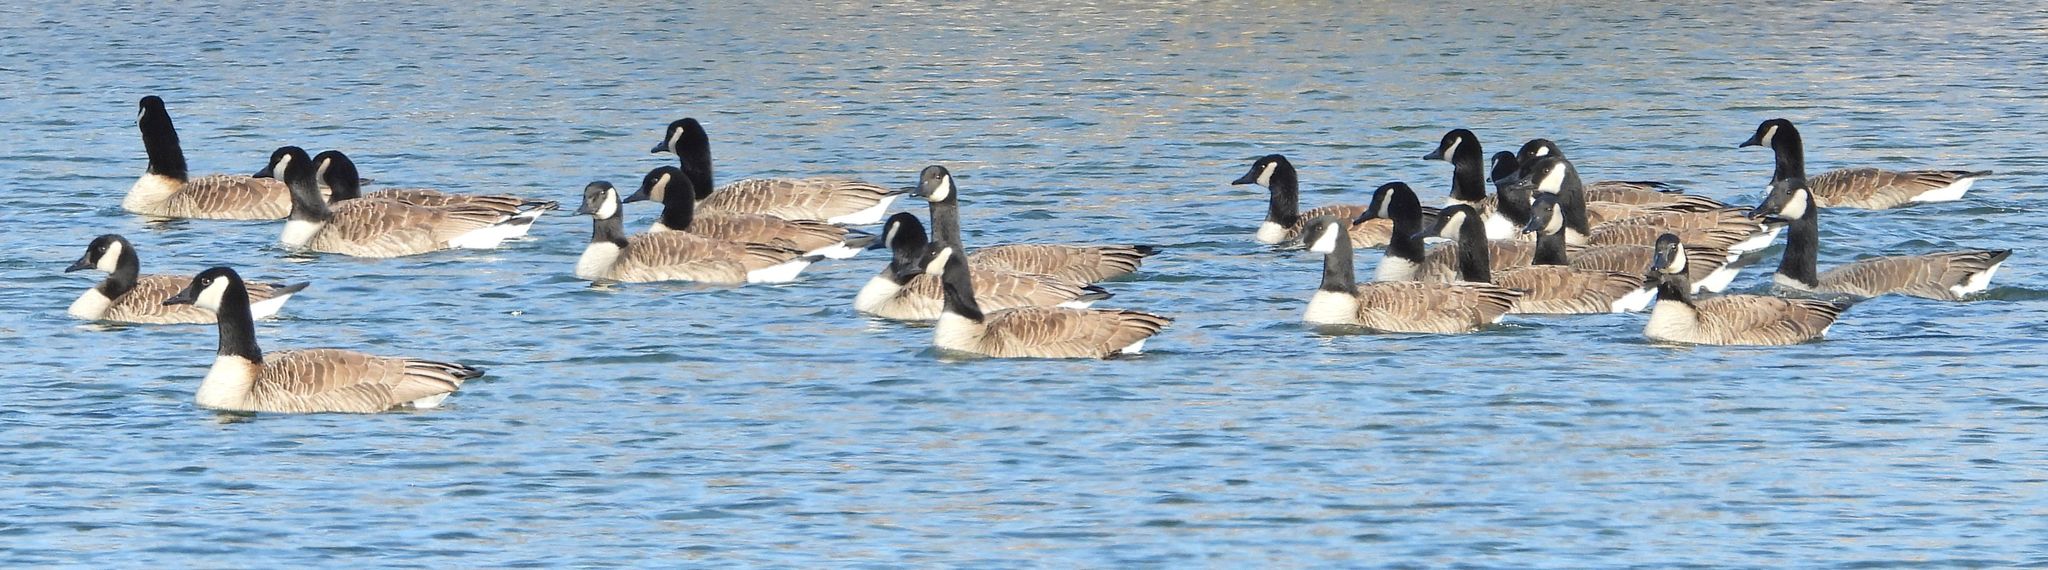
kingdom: Animalia
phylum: Chordata
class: Aves
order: Anseriformes
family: Anatidae
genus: Branta
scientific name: Branta canadensis
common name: Canada goose
